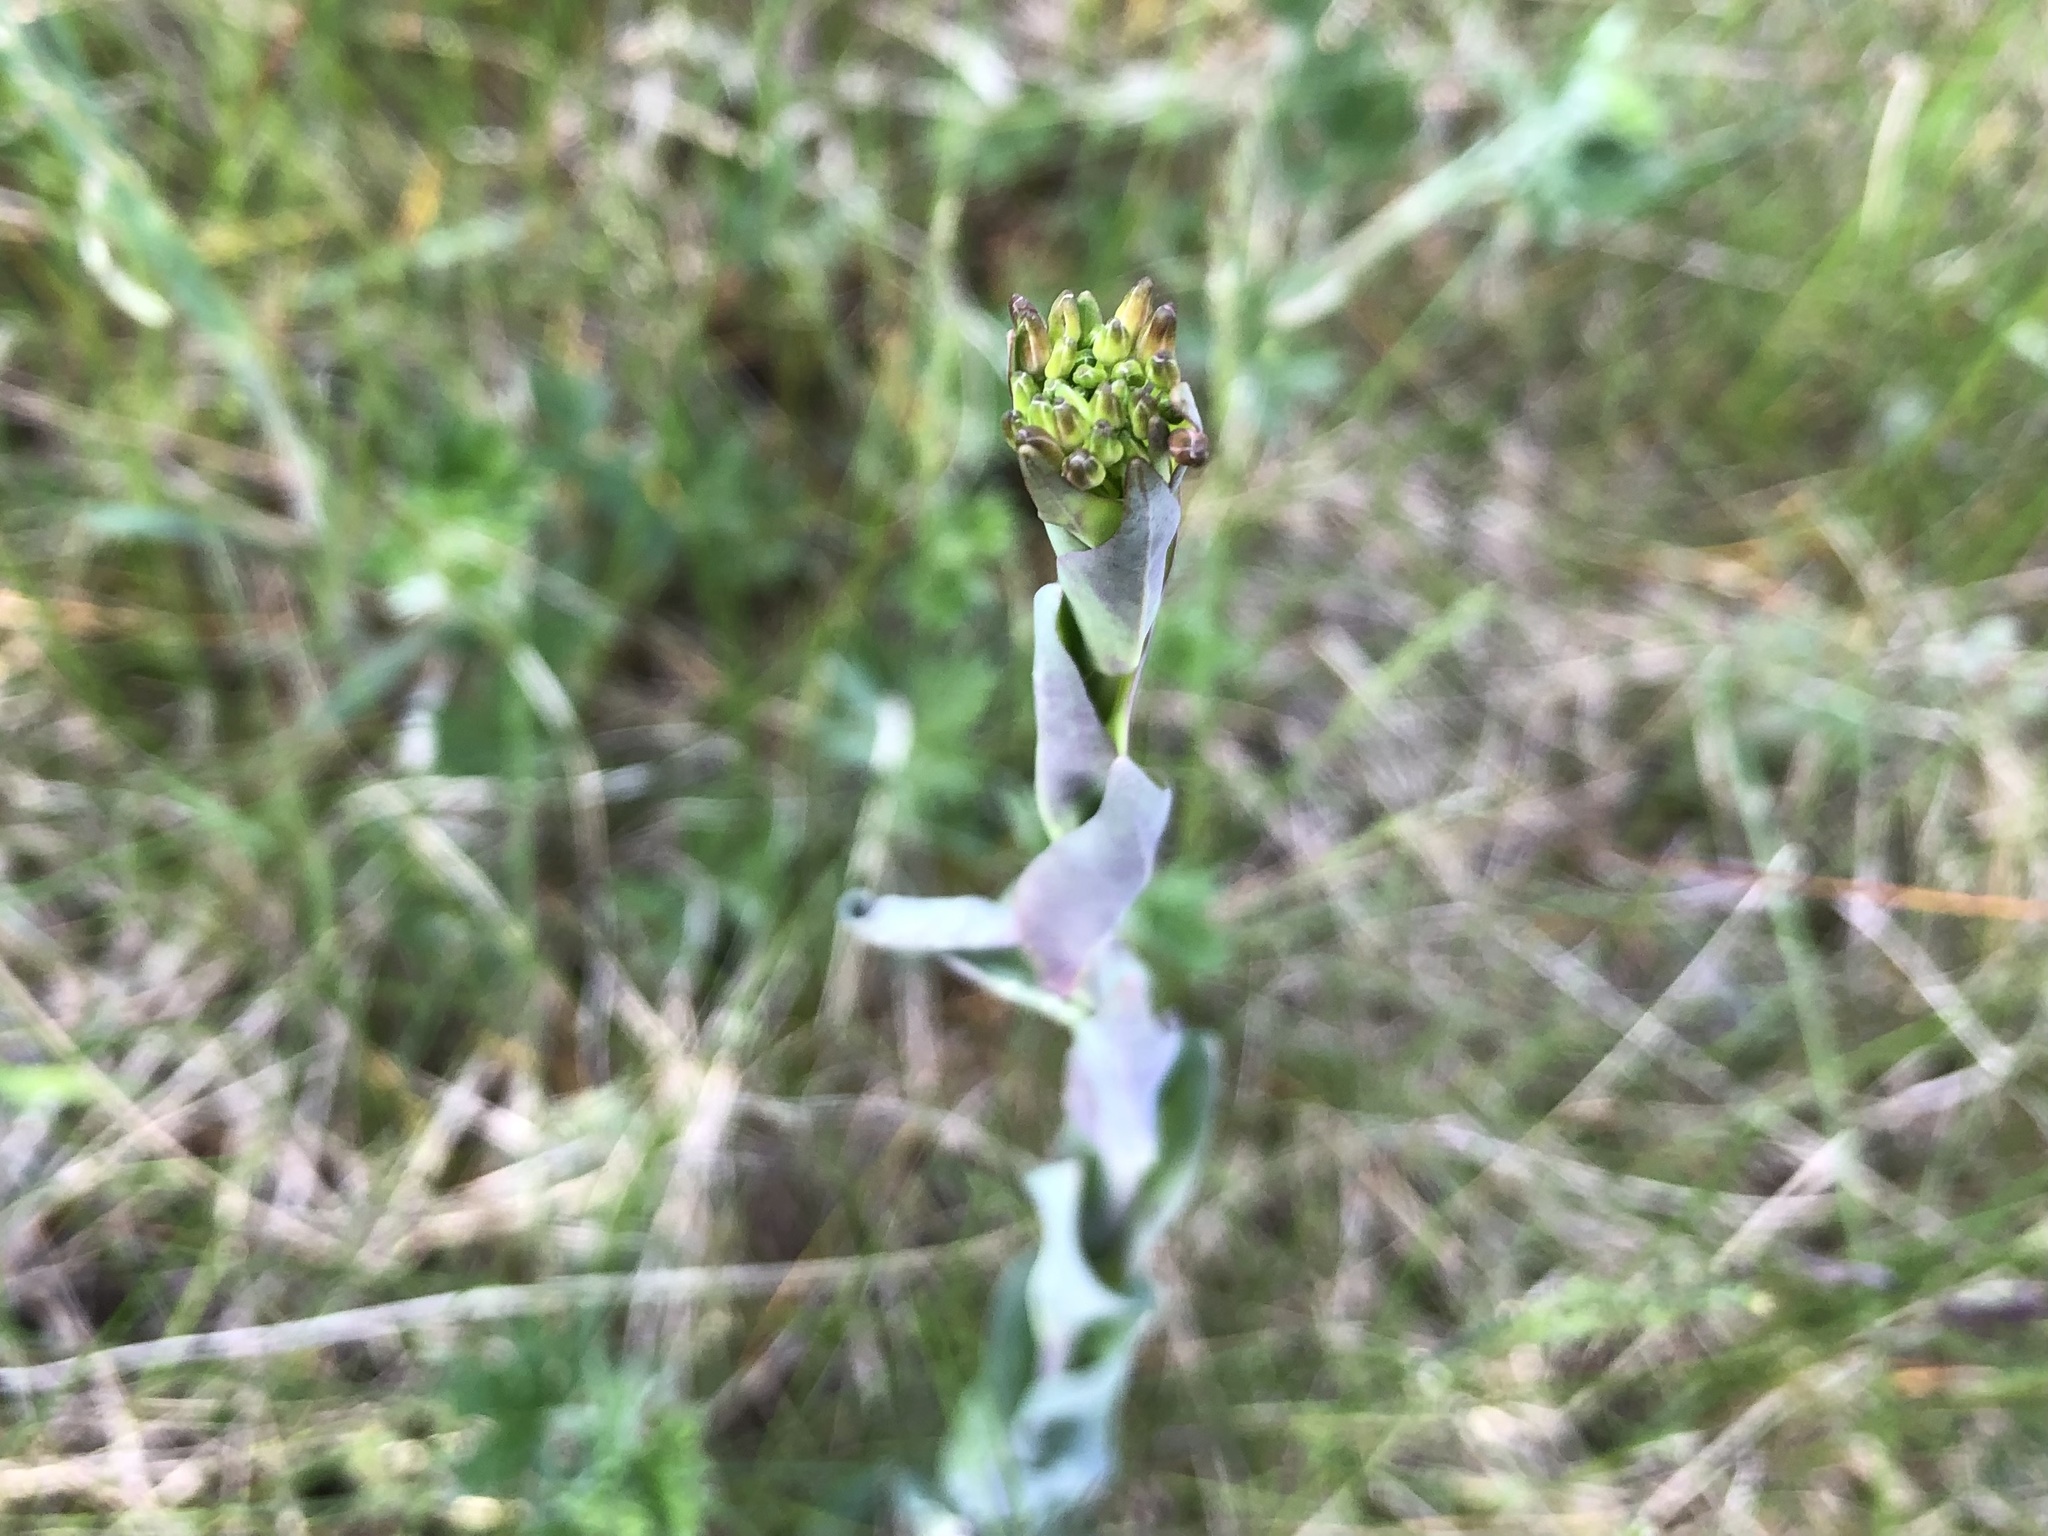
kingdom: Plantae
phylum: Tracheophyta
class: Magnoliopsida
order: Brassicales
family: Brassicaceae
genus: Turritis
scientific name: Turritis glabra
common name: Tower rockcress
